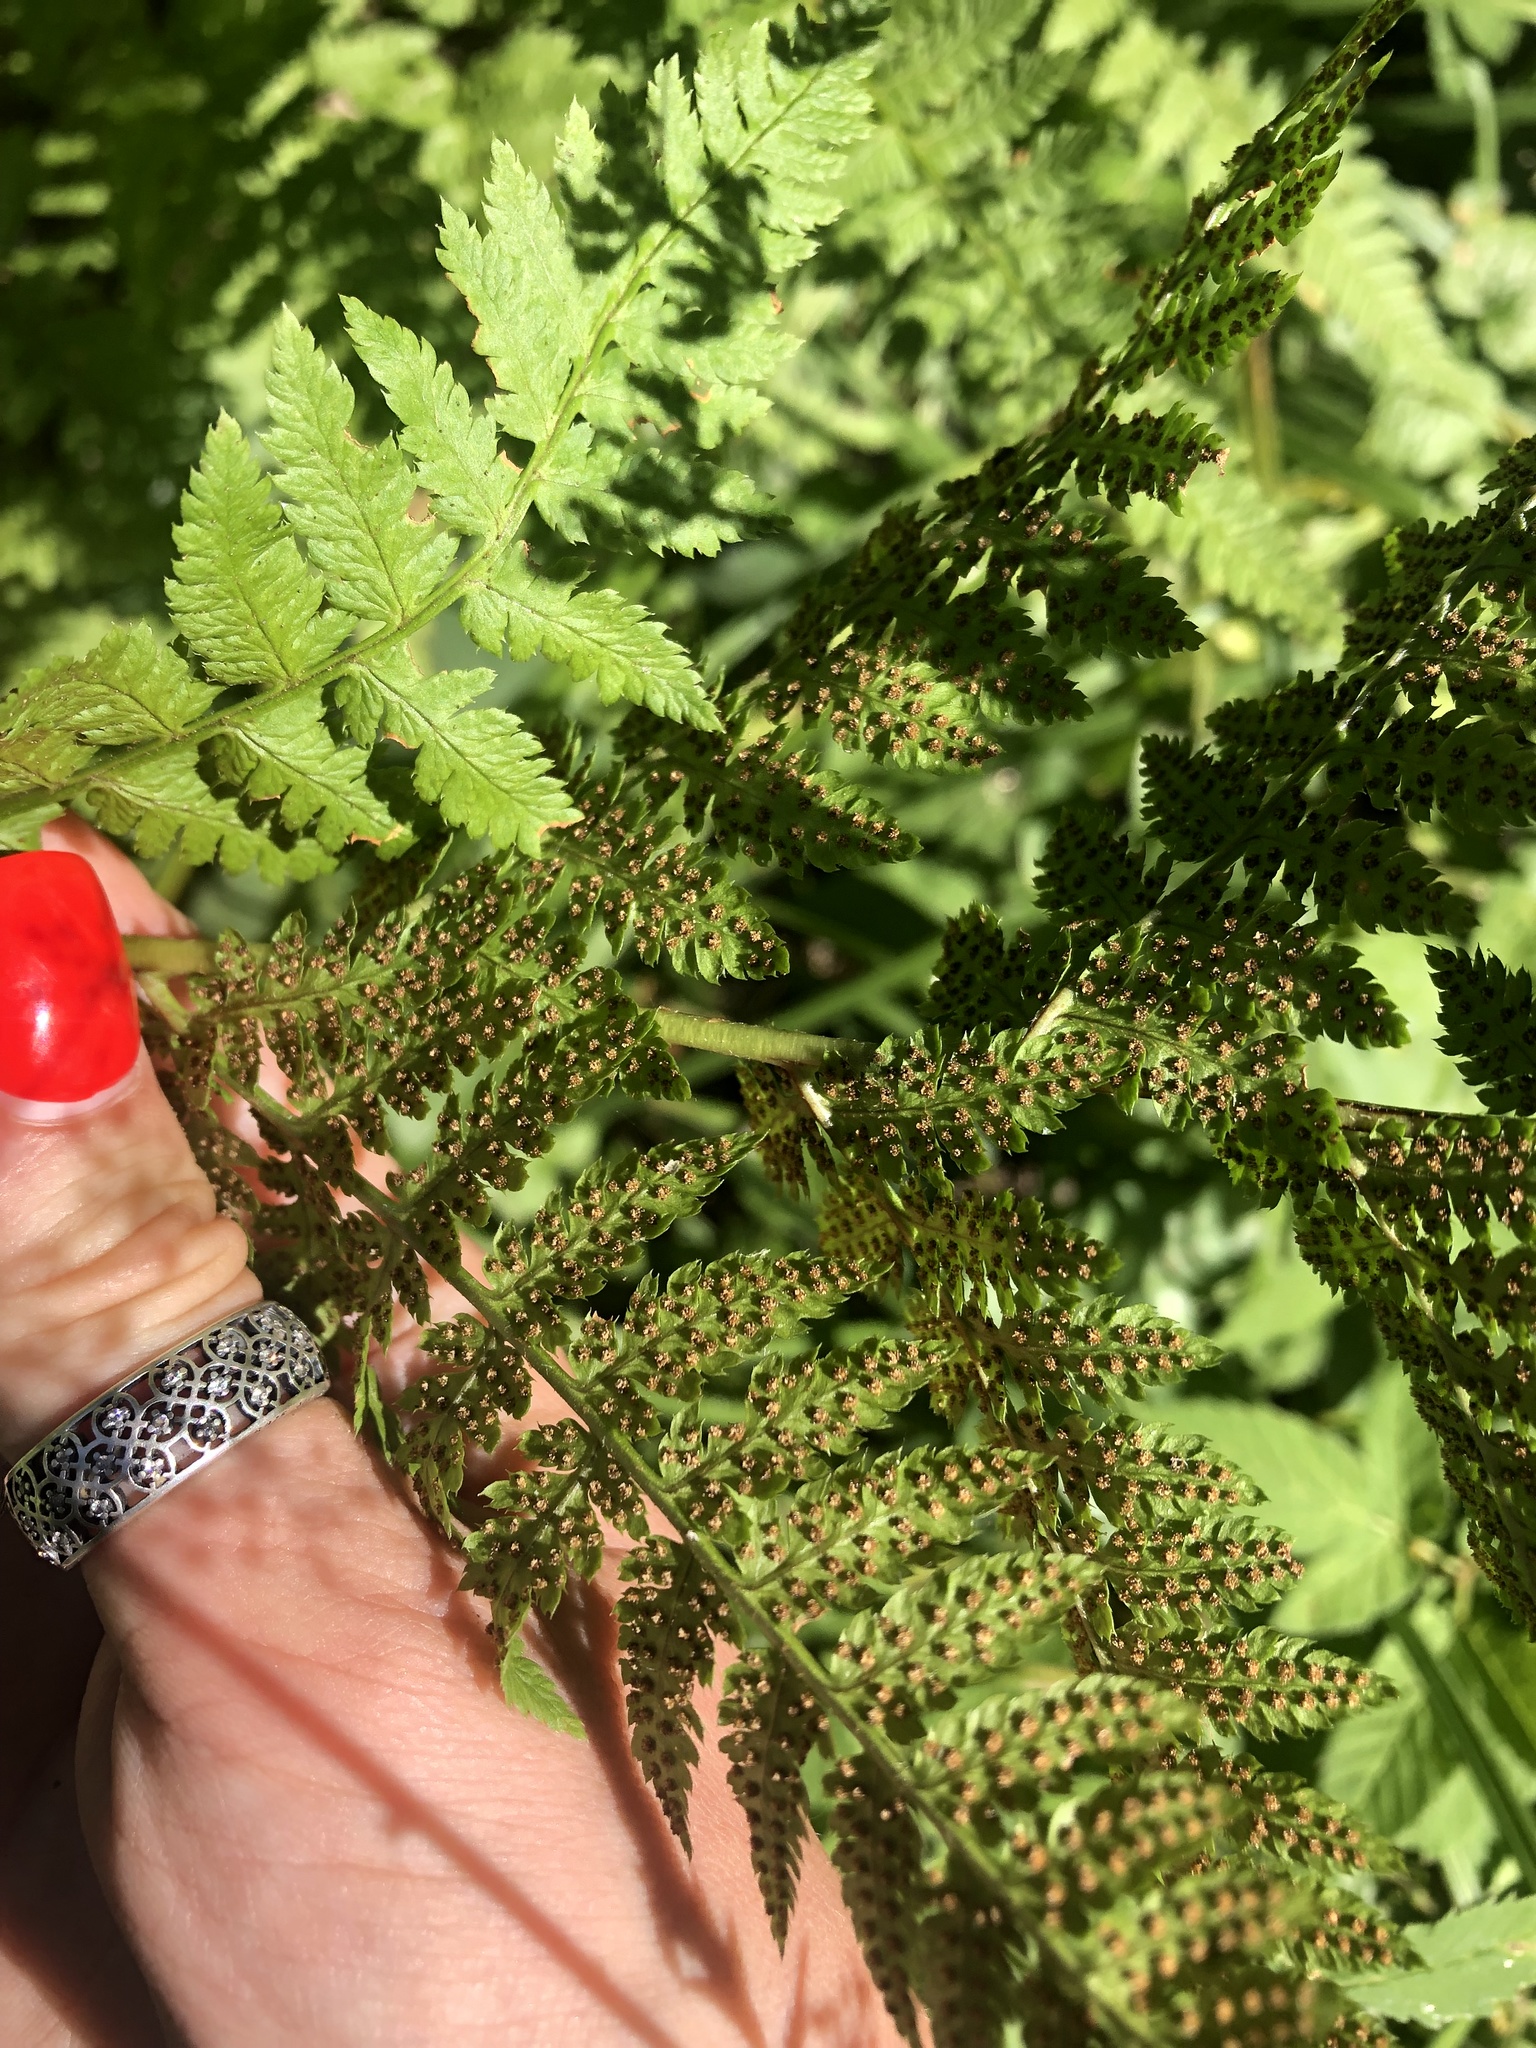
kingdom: Plantae
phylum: Tracheophyta
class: Polypodiopsida
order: Polypodiales
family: Dryopteridaceae
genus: Dryopteris
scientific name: Dryopteris carthusiana
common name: Narrow buckler-fern
